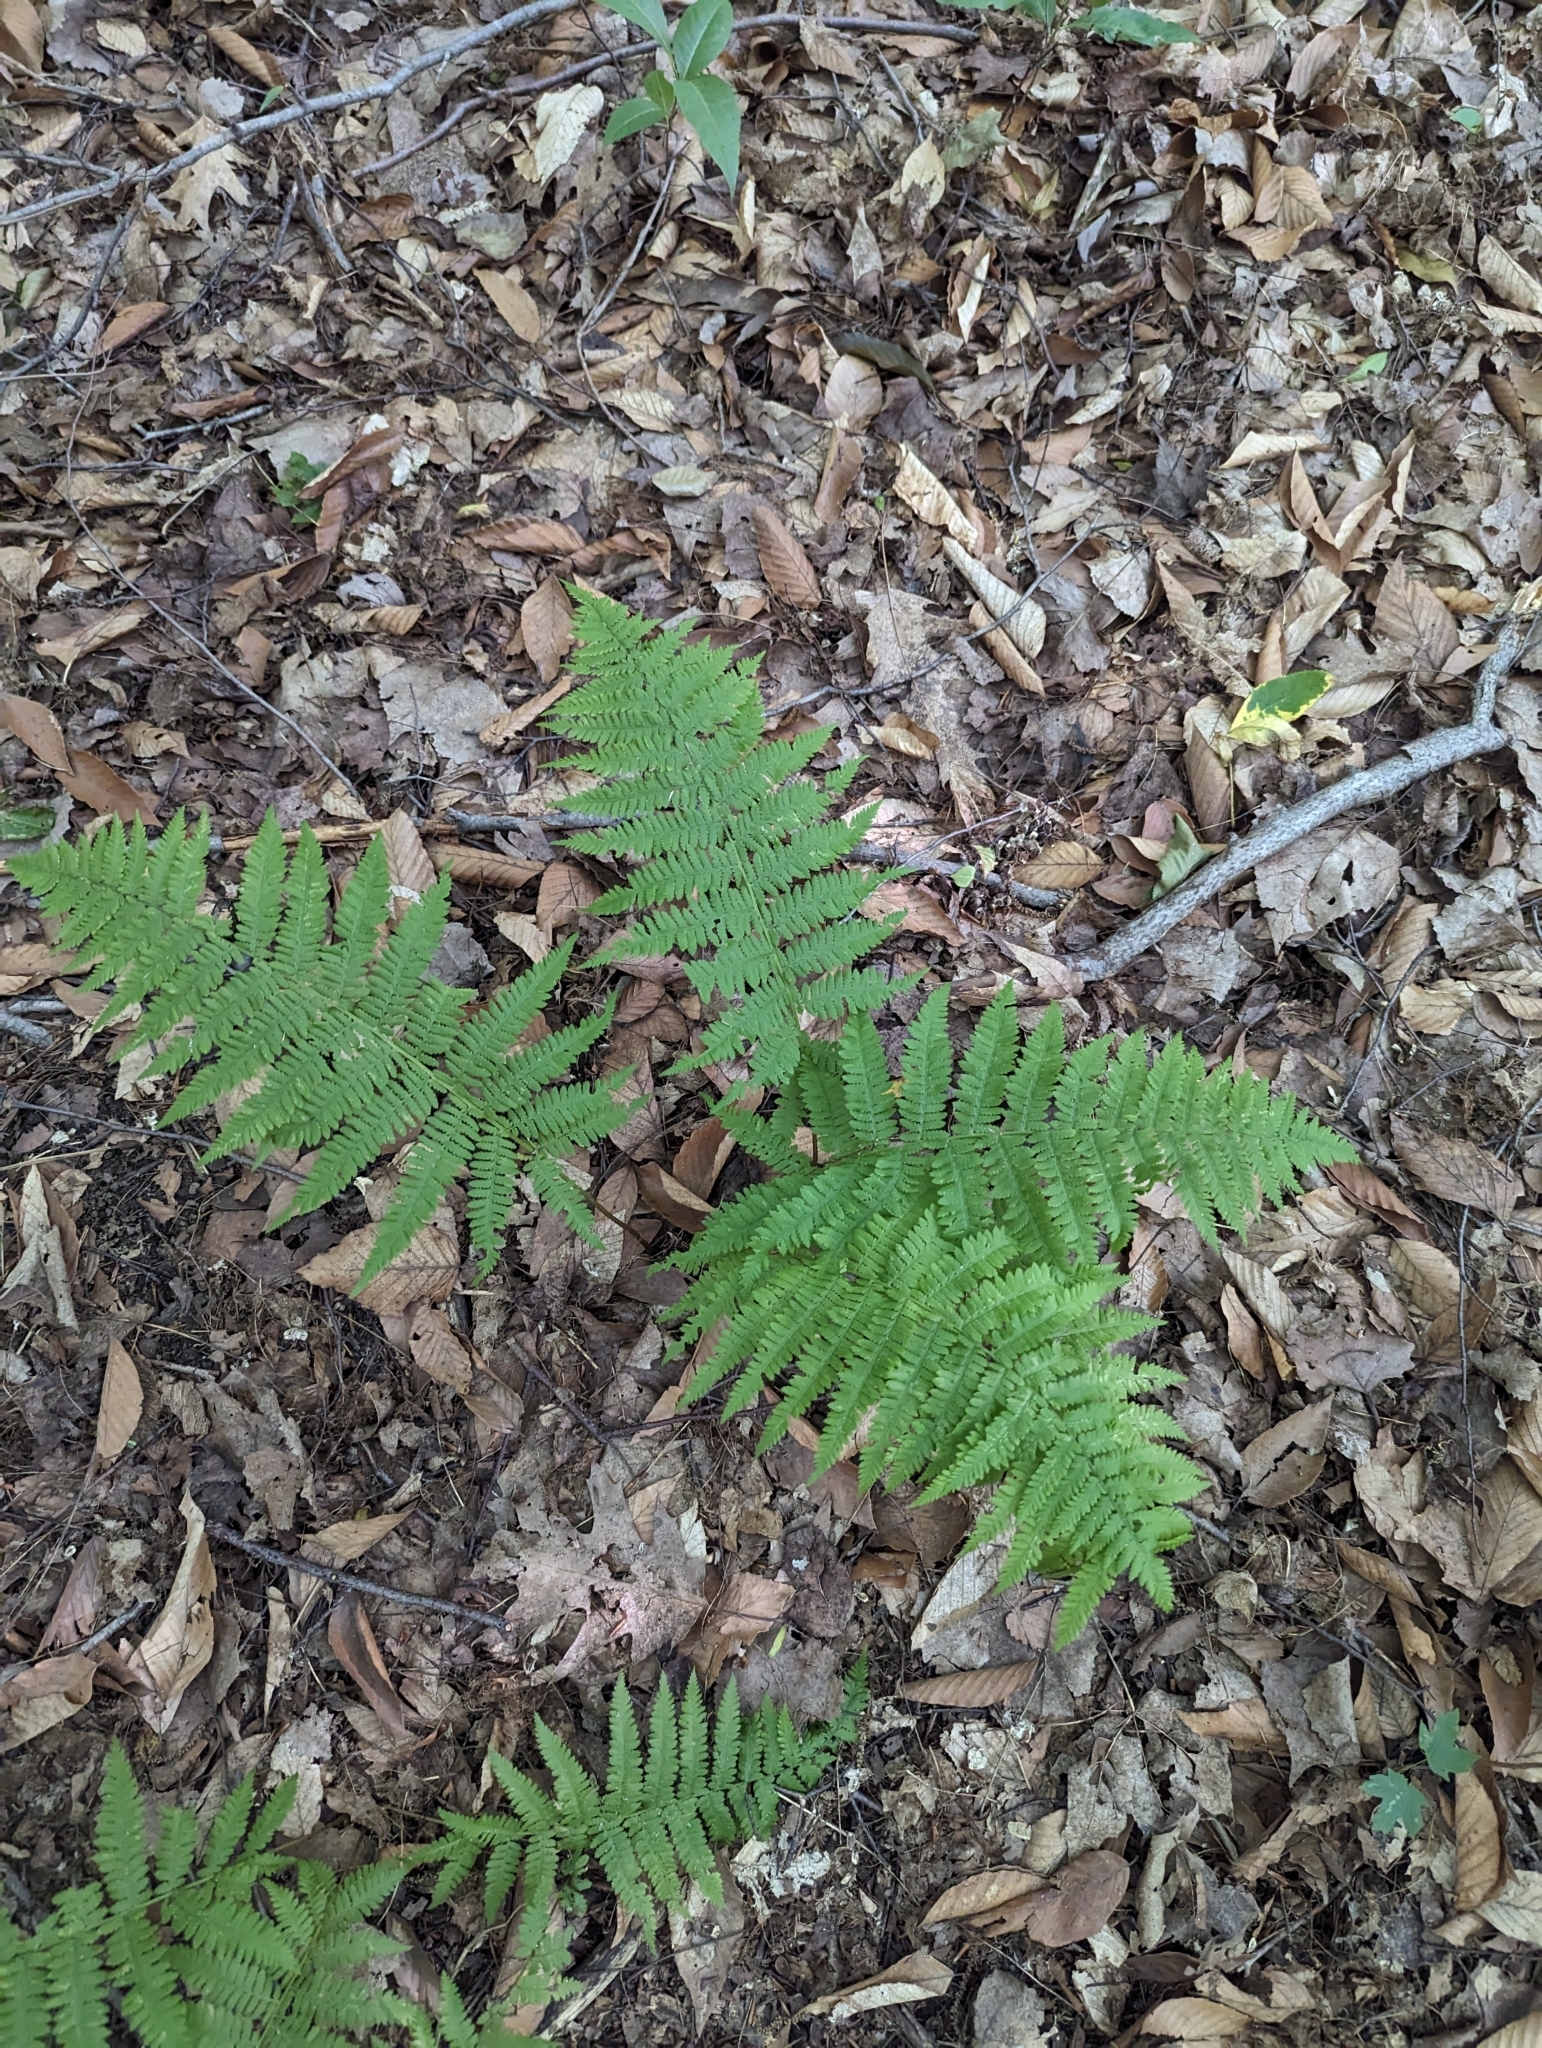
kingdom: Plantae
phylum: Tracheophyta
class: Polypodiopsida
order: Polypodiales
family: Athyriaceae
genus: Athyrium
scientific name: Athyrium angustum
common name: Northern lady fern
